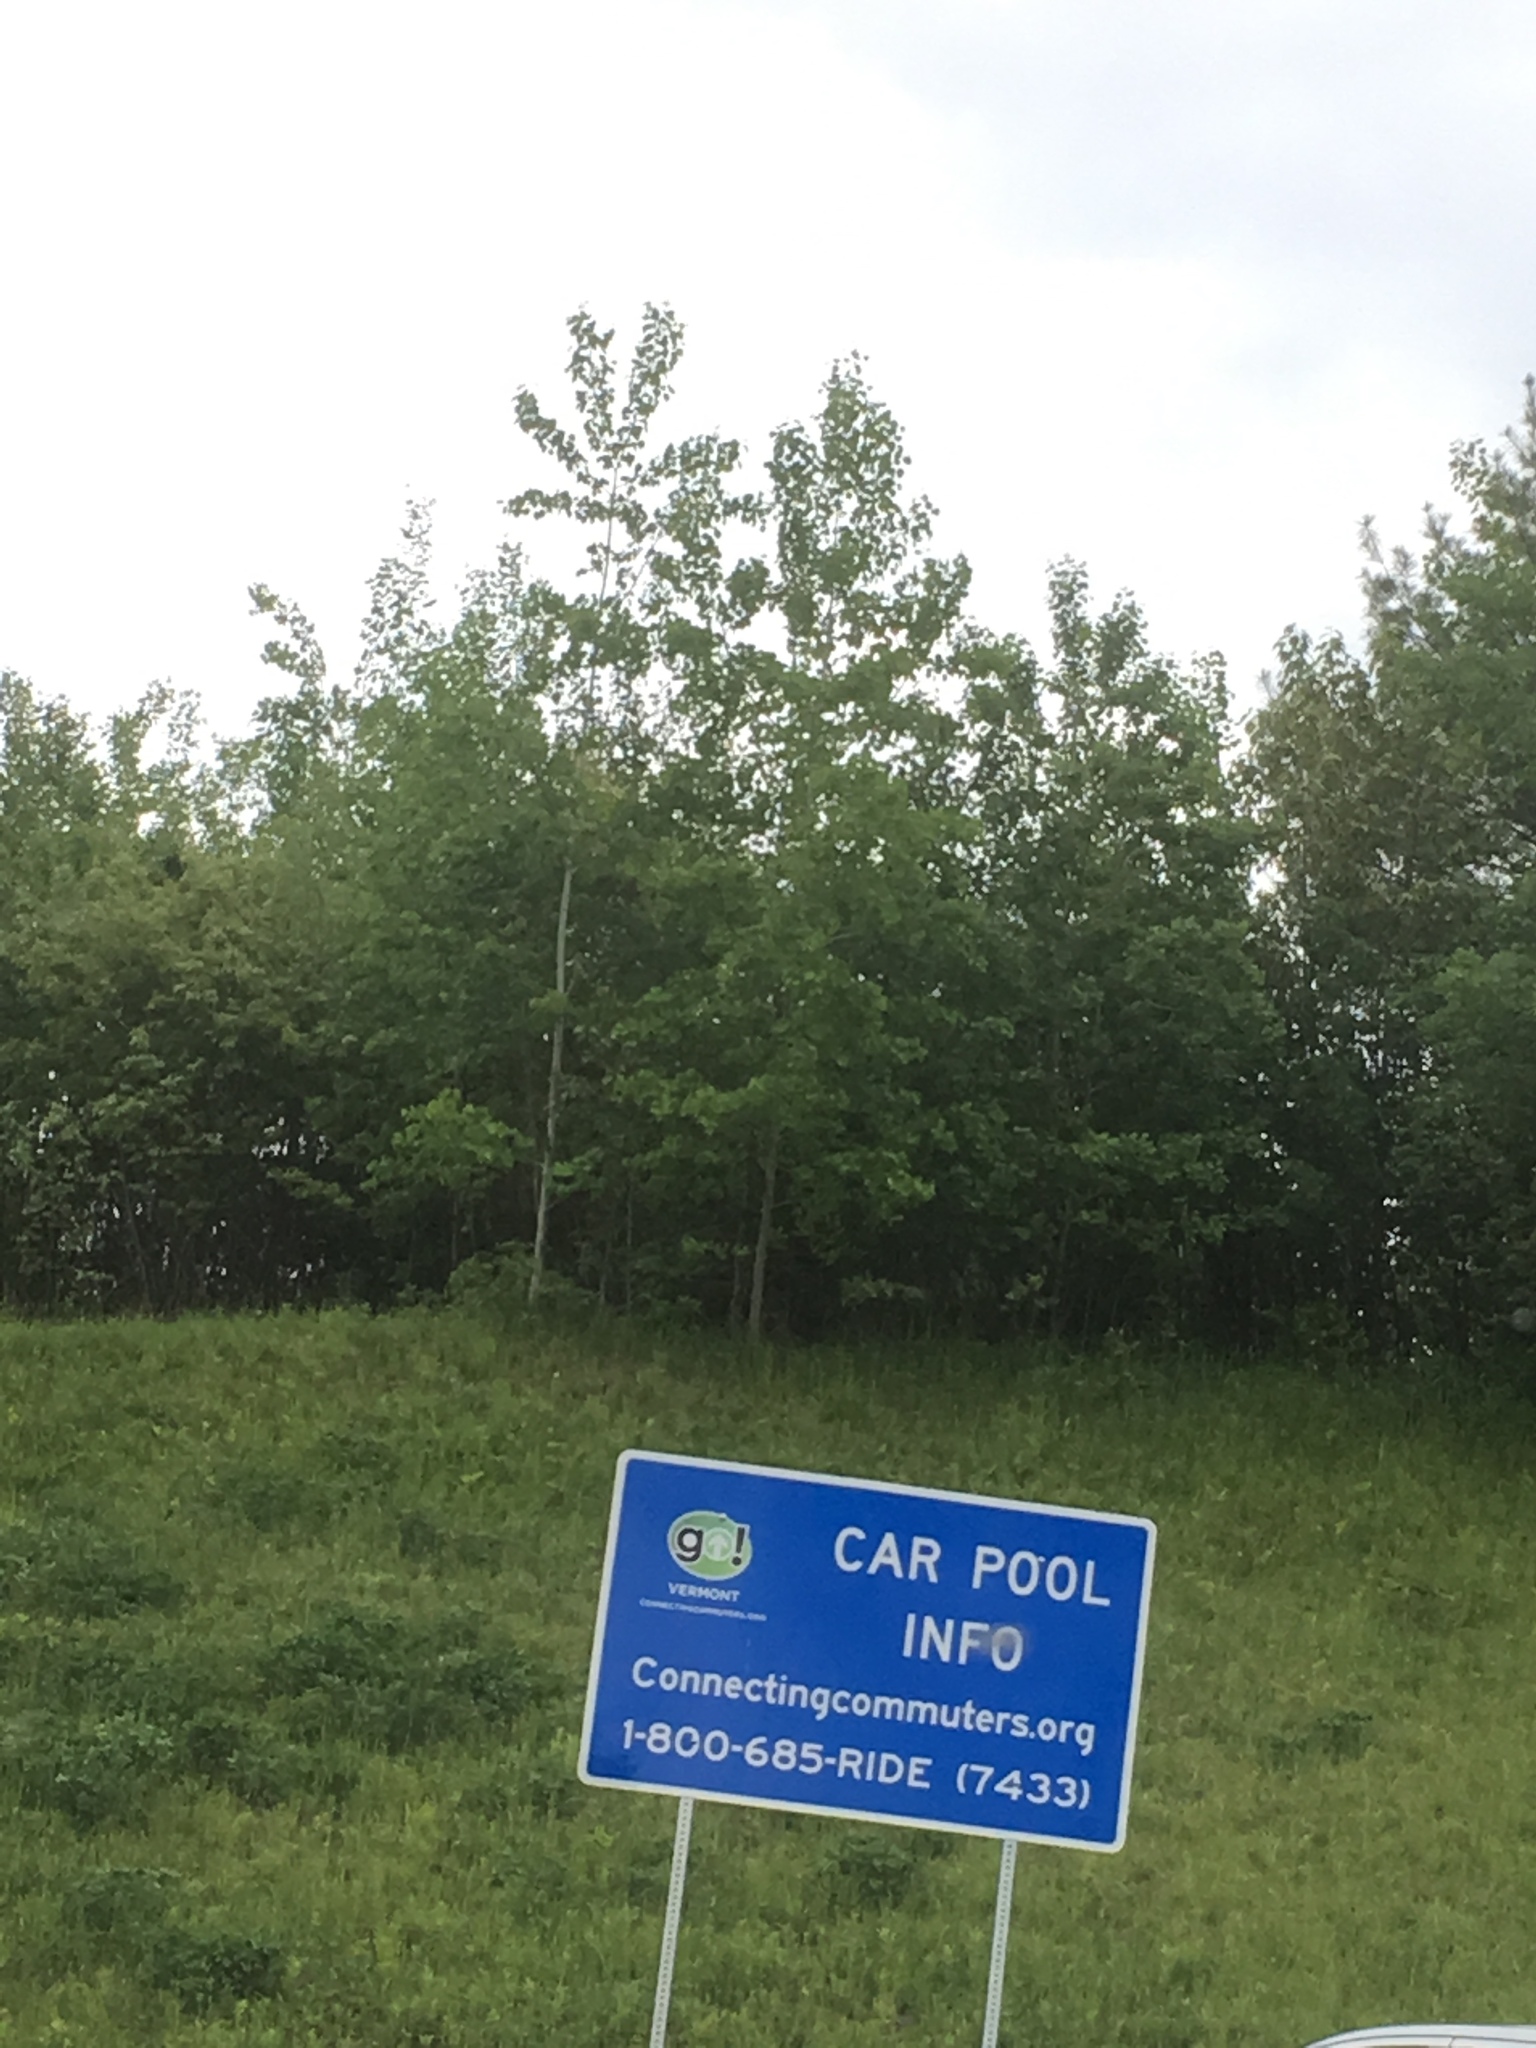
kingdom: Plantae
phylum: Tracheophyta
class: Magnoliopsida
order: Malpighiales
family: Salicaceae
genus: Populus
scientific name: Populus tremuloides
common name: Quaking aspen
